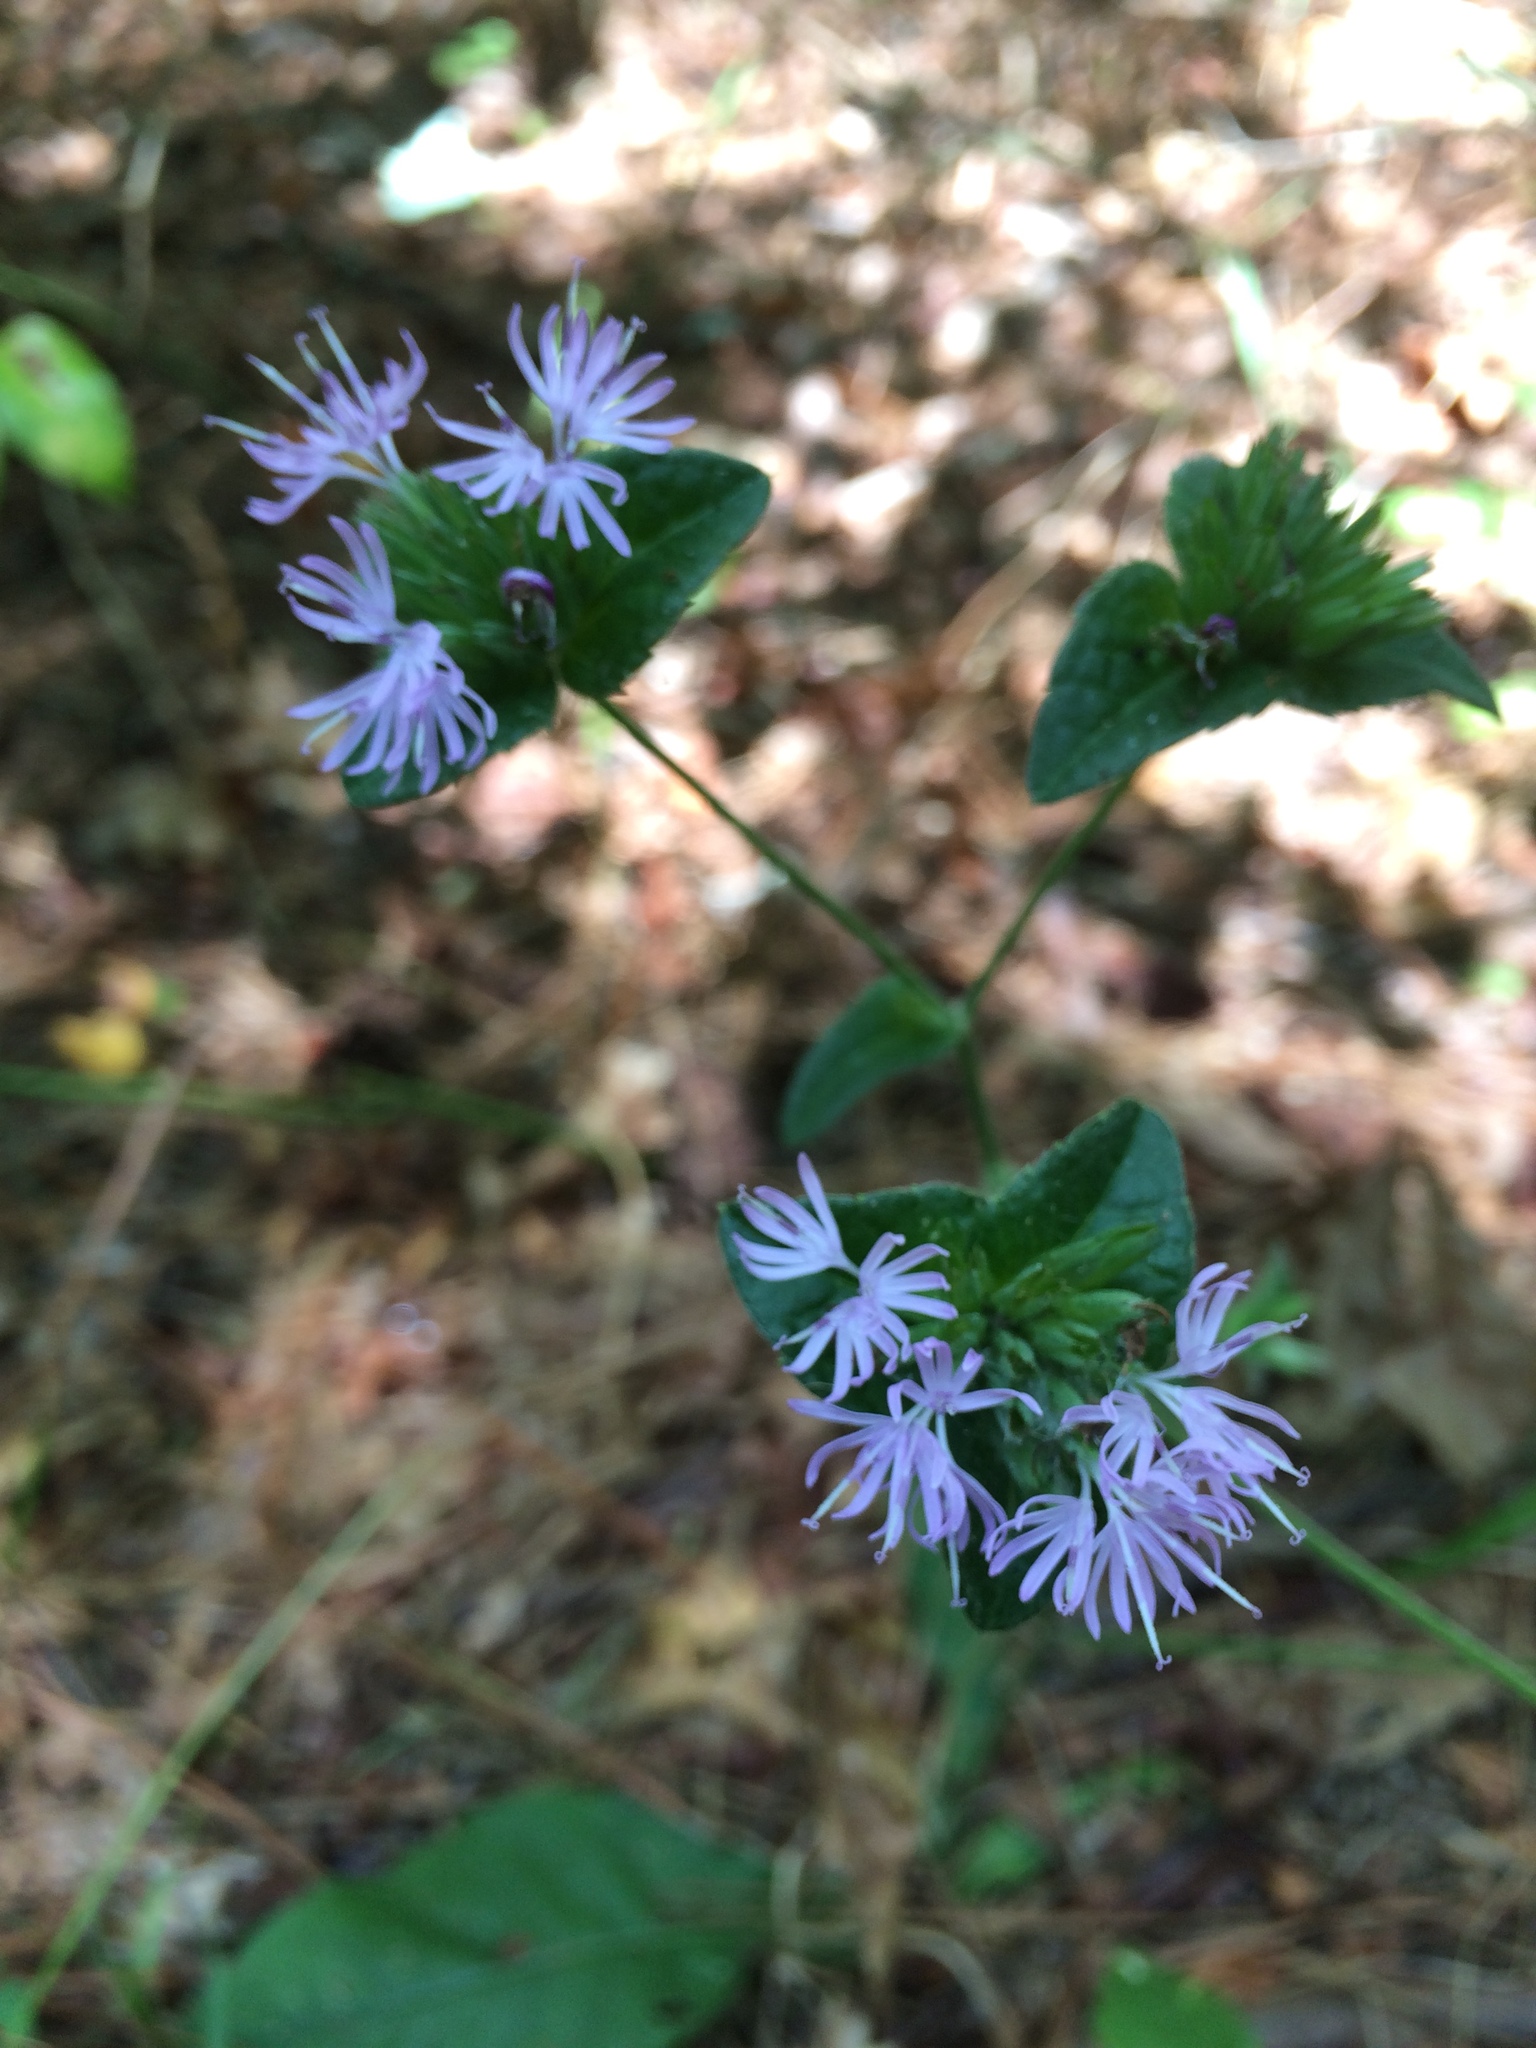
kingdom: Plantae
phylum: Tracheophyta
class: Magnoliopsida
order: Asterales
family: Asteraceae
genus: Elephantopus
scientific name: Elephantopus tomentosus
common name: Tobacco-weed
